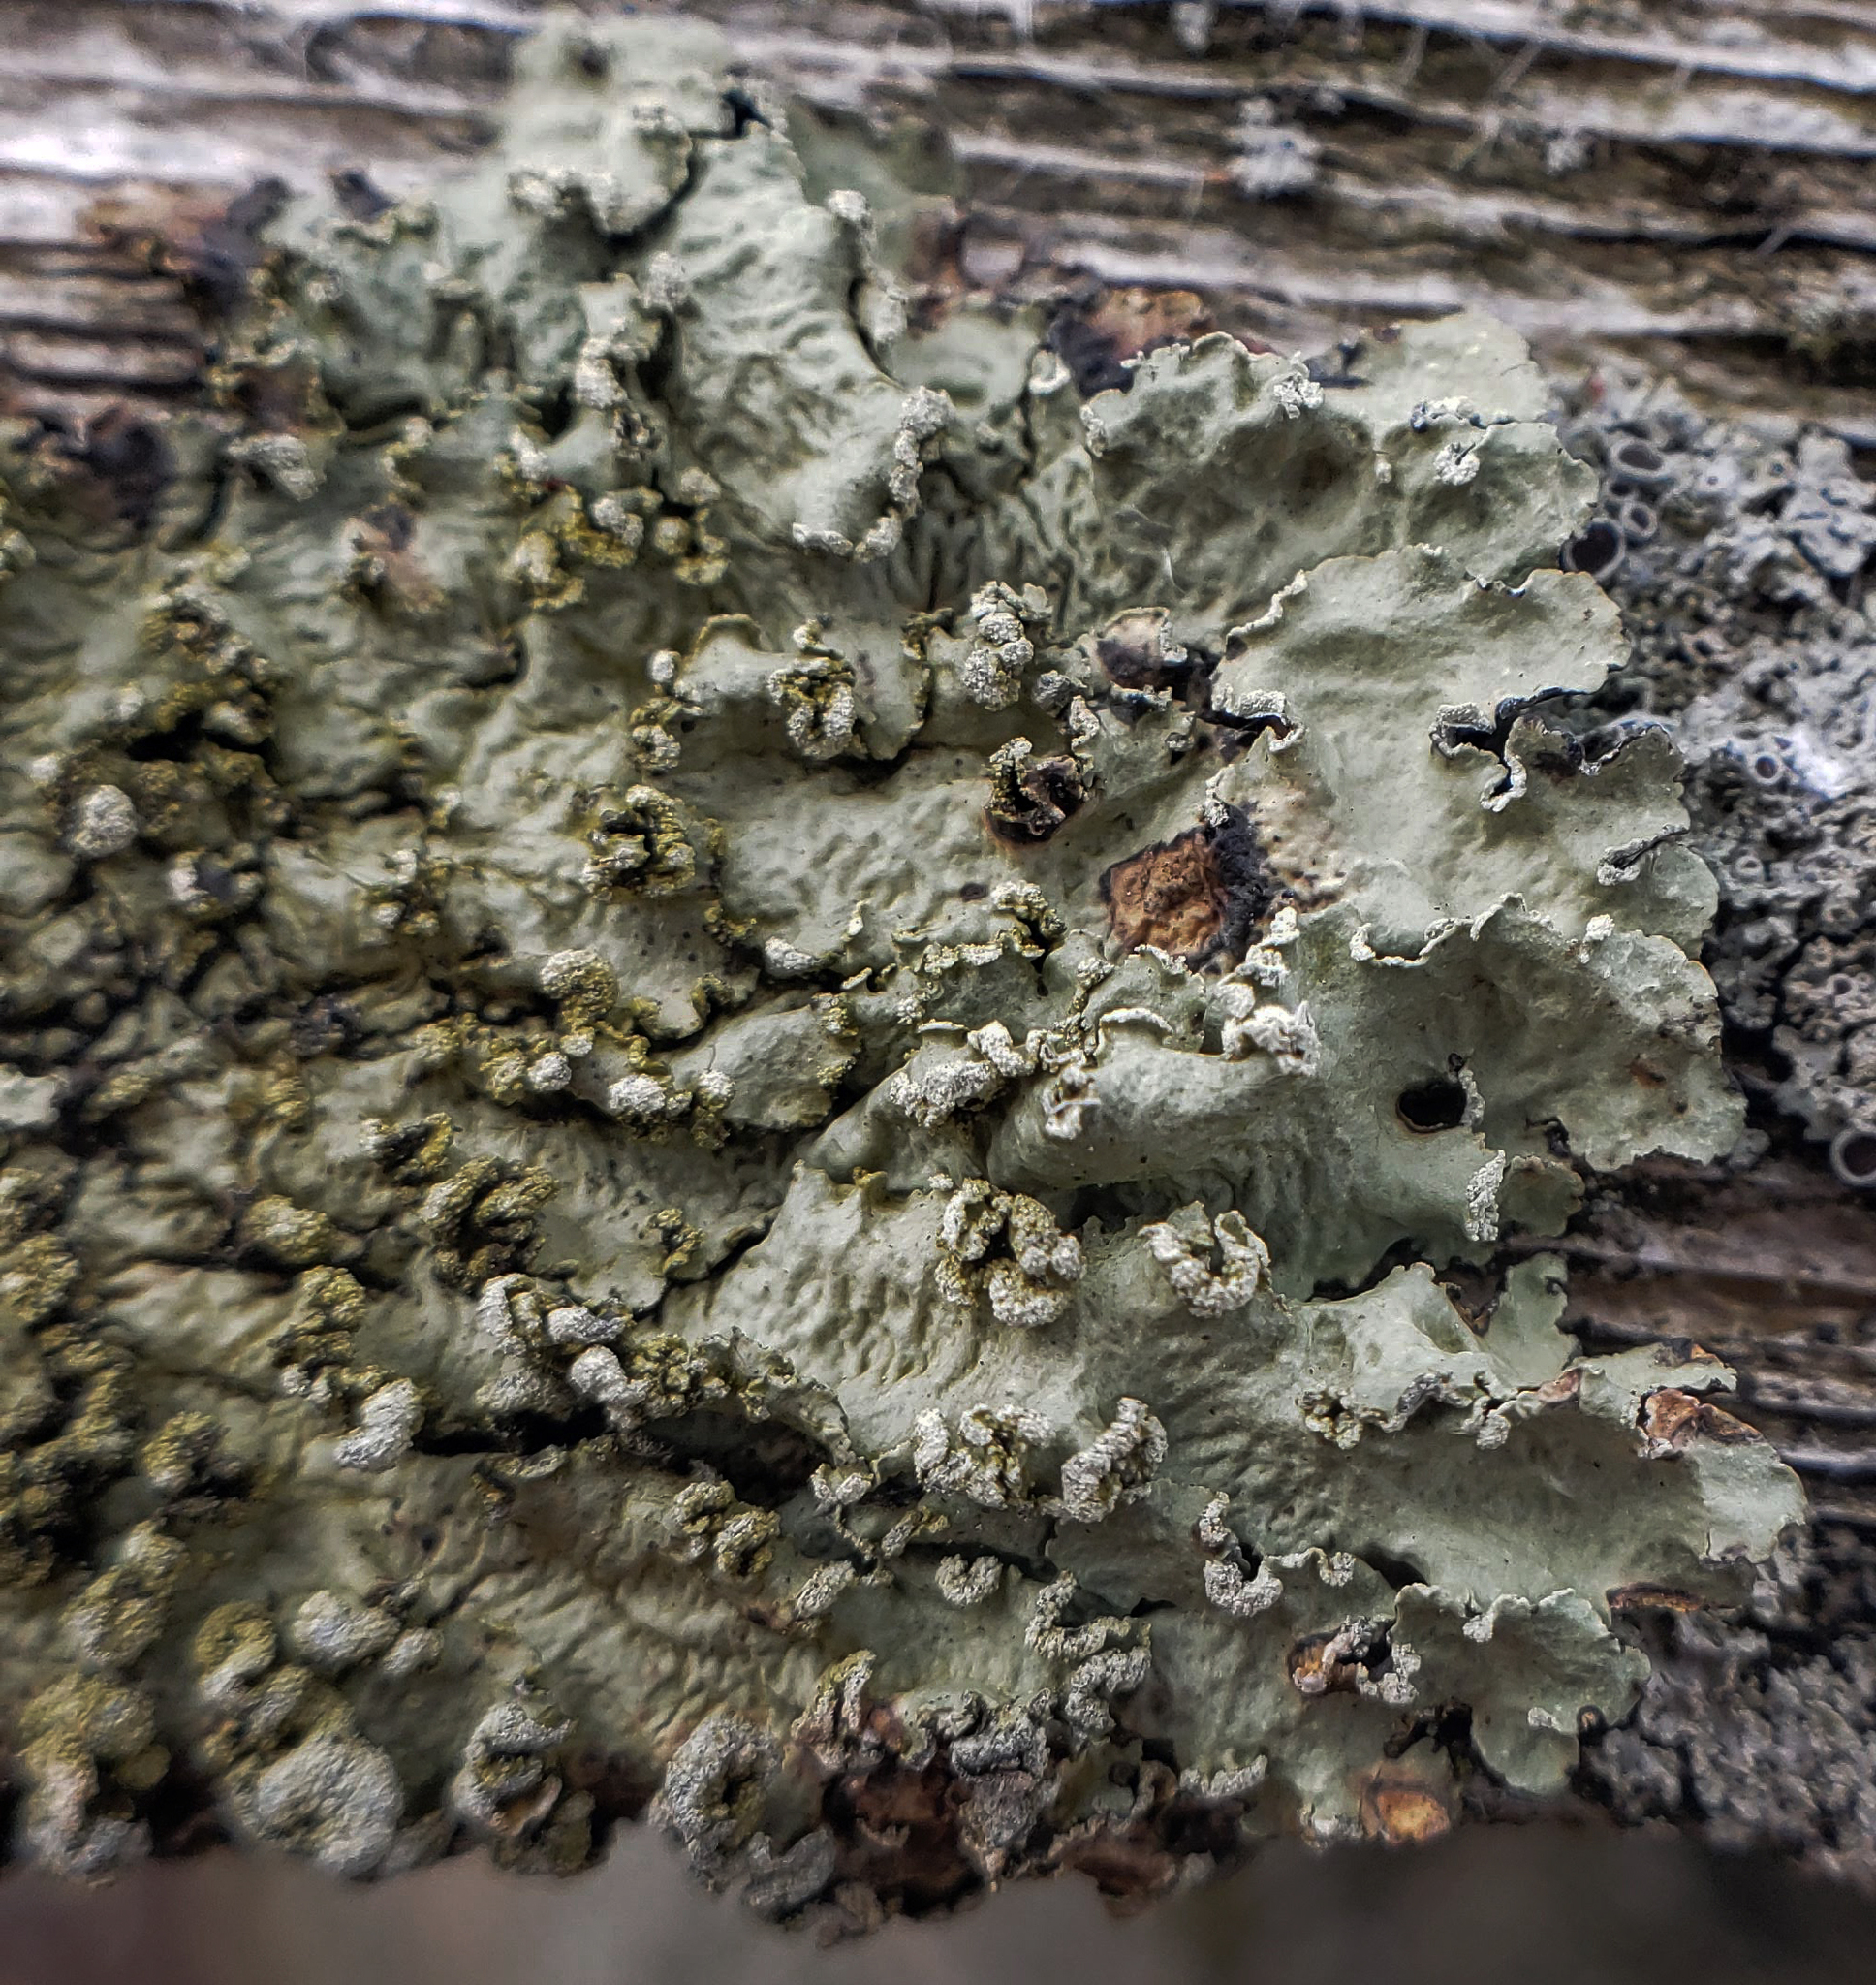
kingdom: Fungi
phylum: Ascomycota
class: Lecanoromycetes
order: Lecanorales
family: Parmeliaceae
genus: Flavopunctelia
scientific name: Flavopunctelia soredica
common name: Powder-edged speckled greenshield
